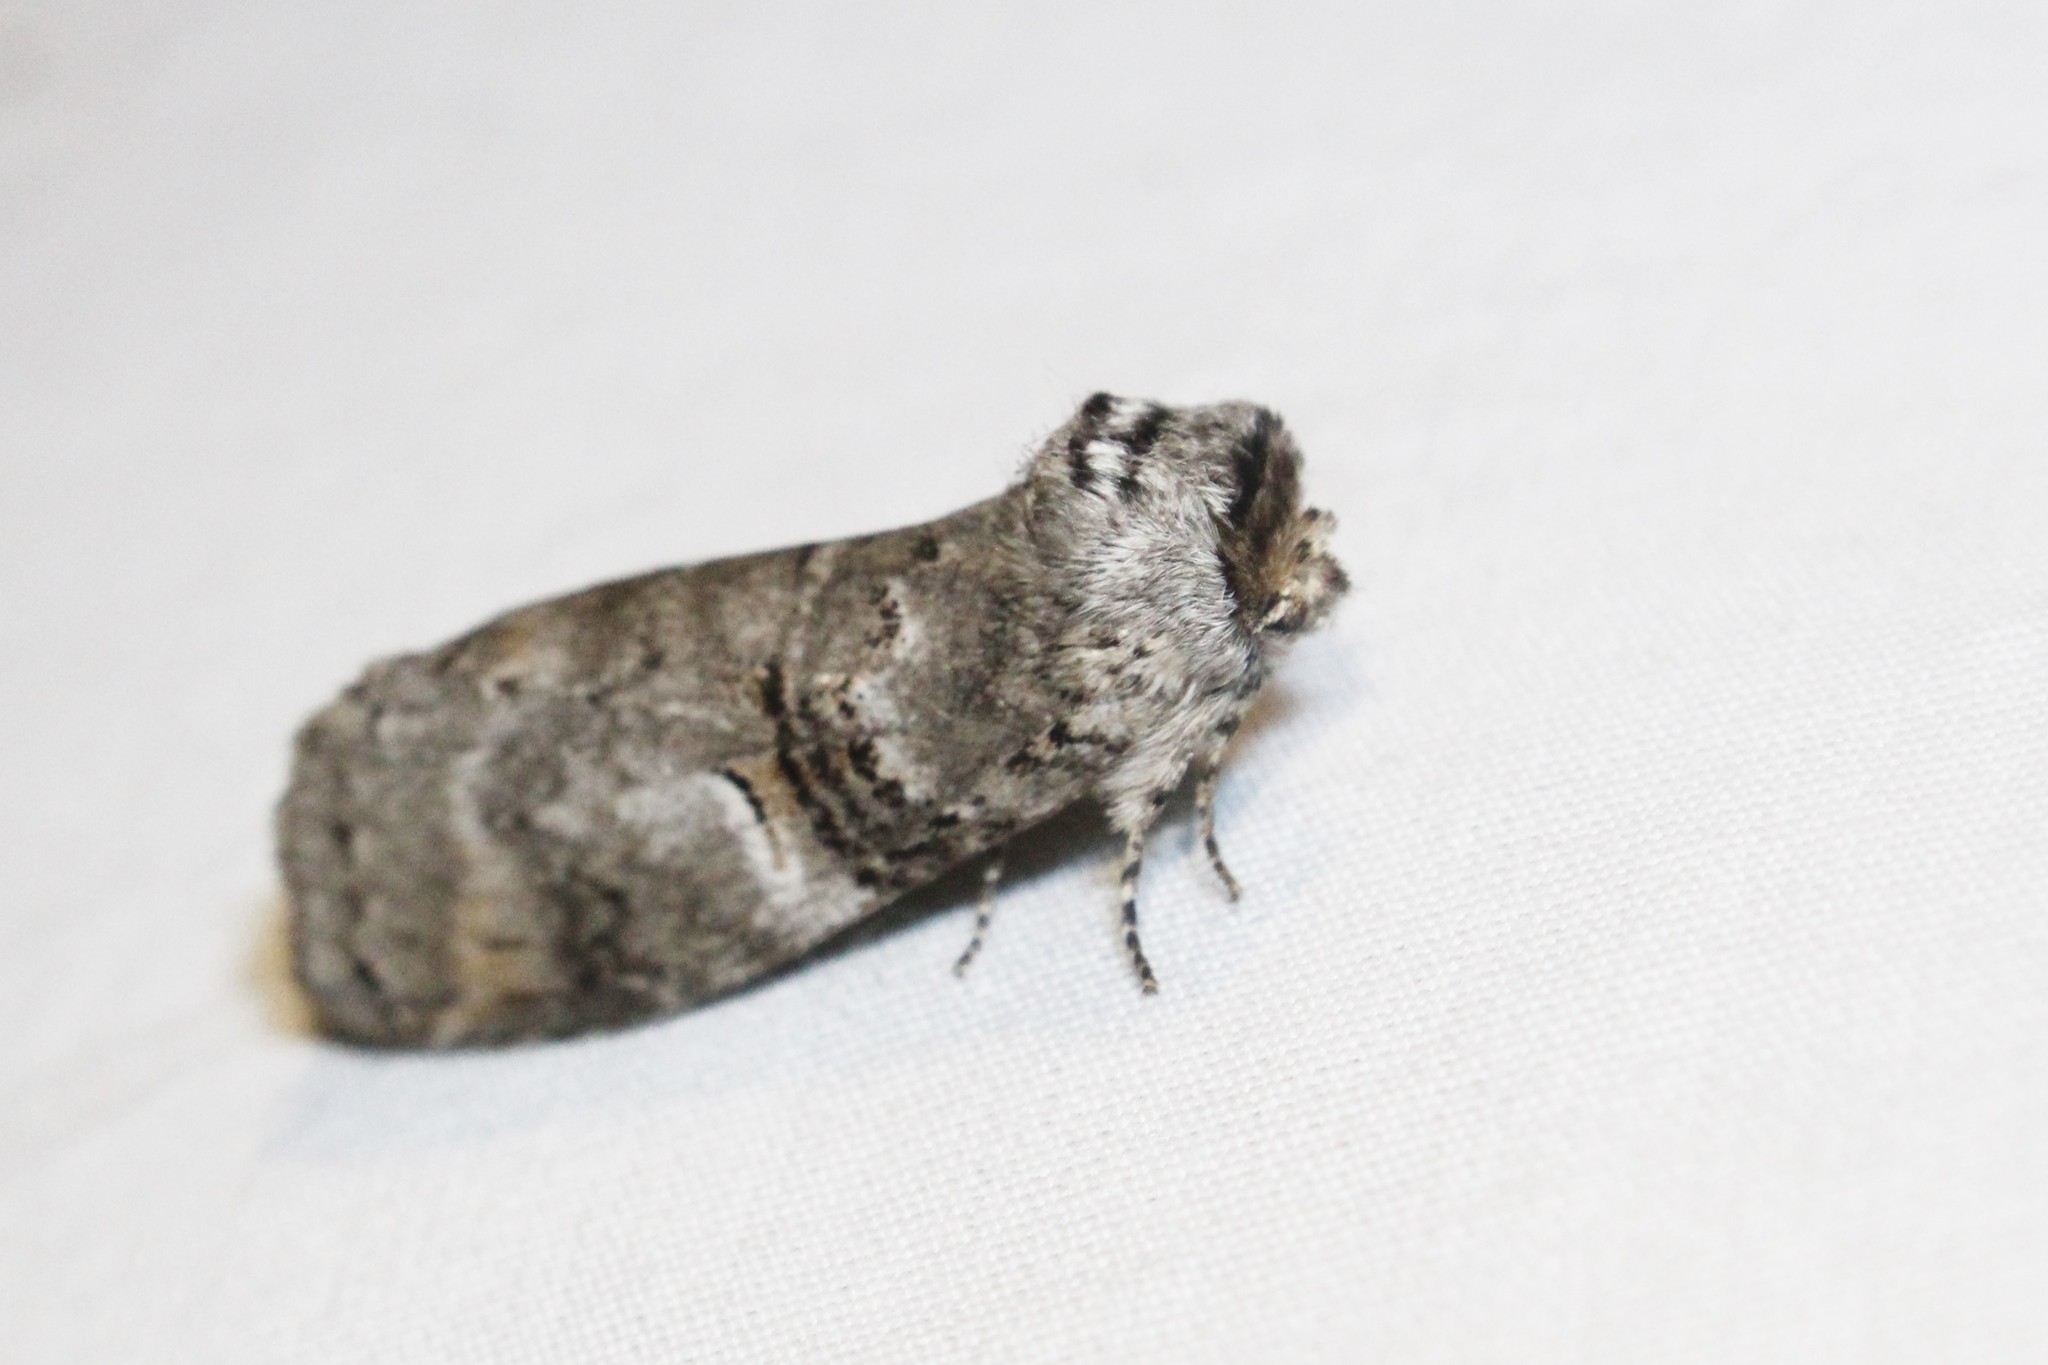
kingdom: Animalia
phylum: Arthropoda
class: Insecta
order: Lepidoptera
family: Notodontidae
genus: Ellida
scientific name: Ellida caniplaga
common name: Linden prominent
